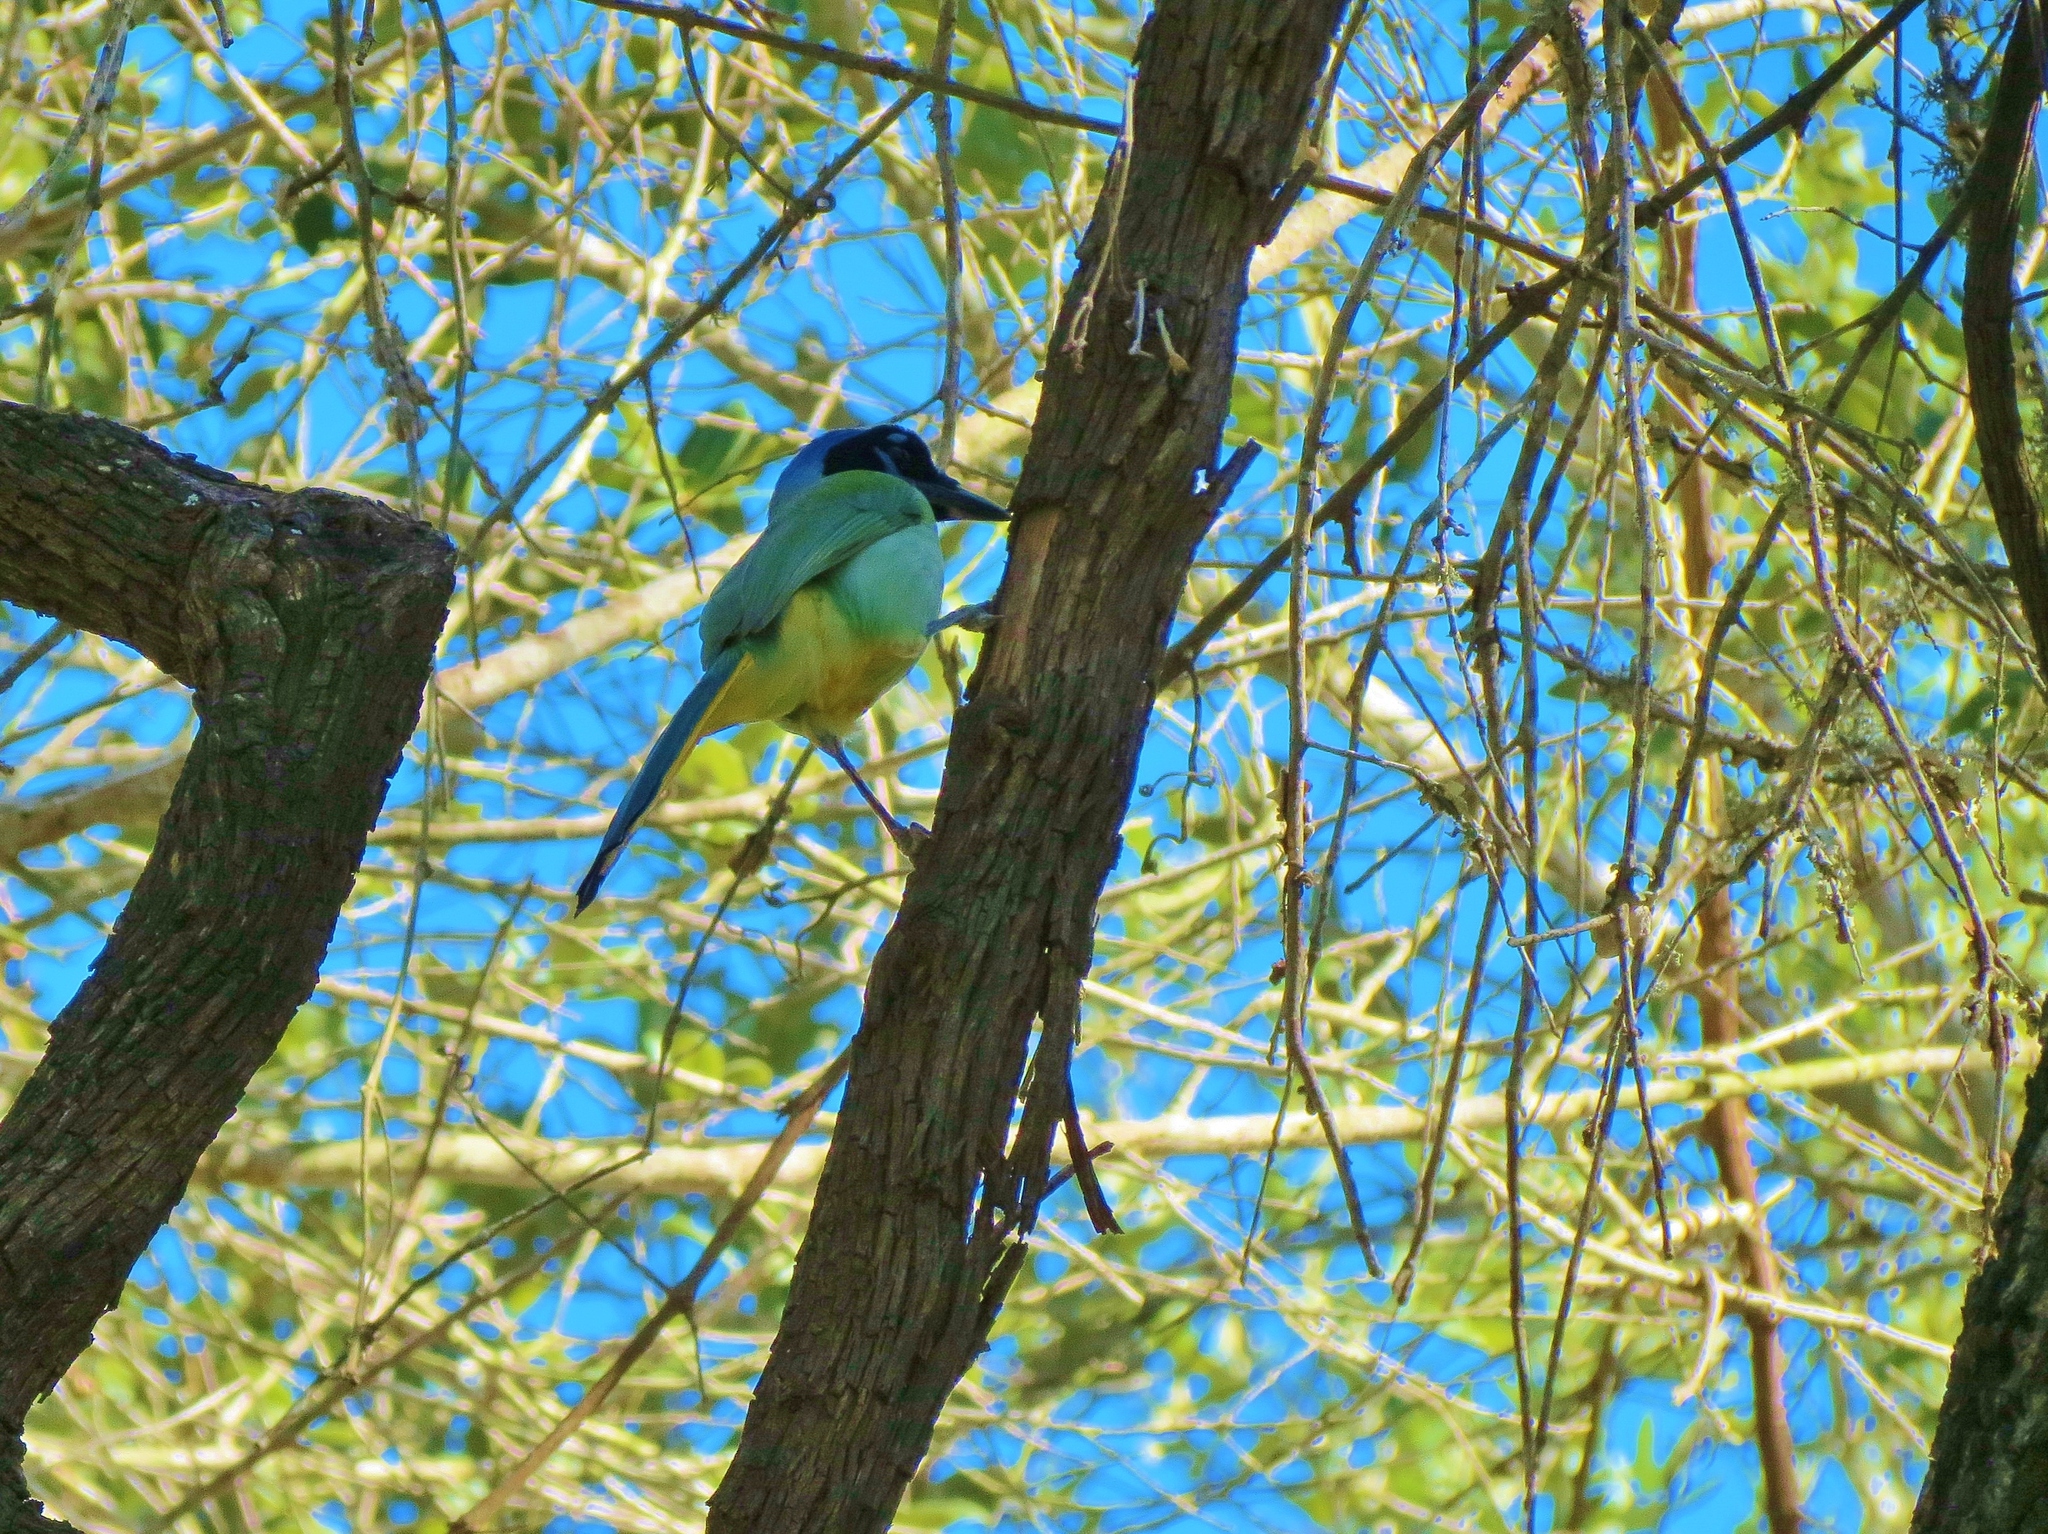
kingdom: Animalia
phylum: Chordata
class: Aves
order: Passeriformes
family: Corvidae
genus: Cyanocorax
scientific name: Cyanocorax yncas
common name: Green jay
